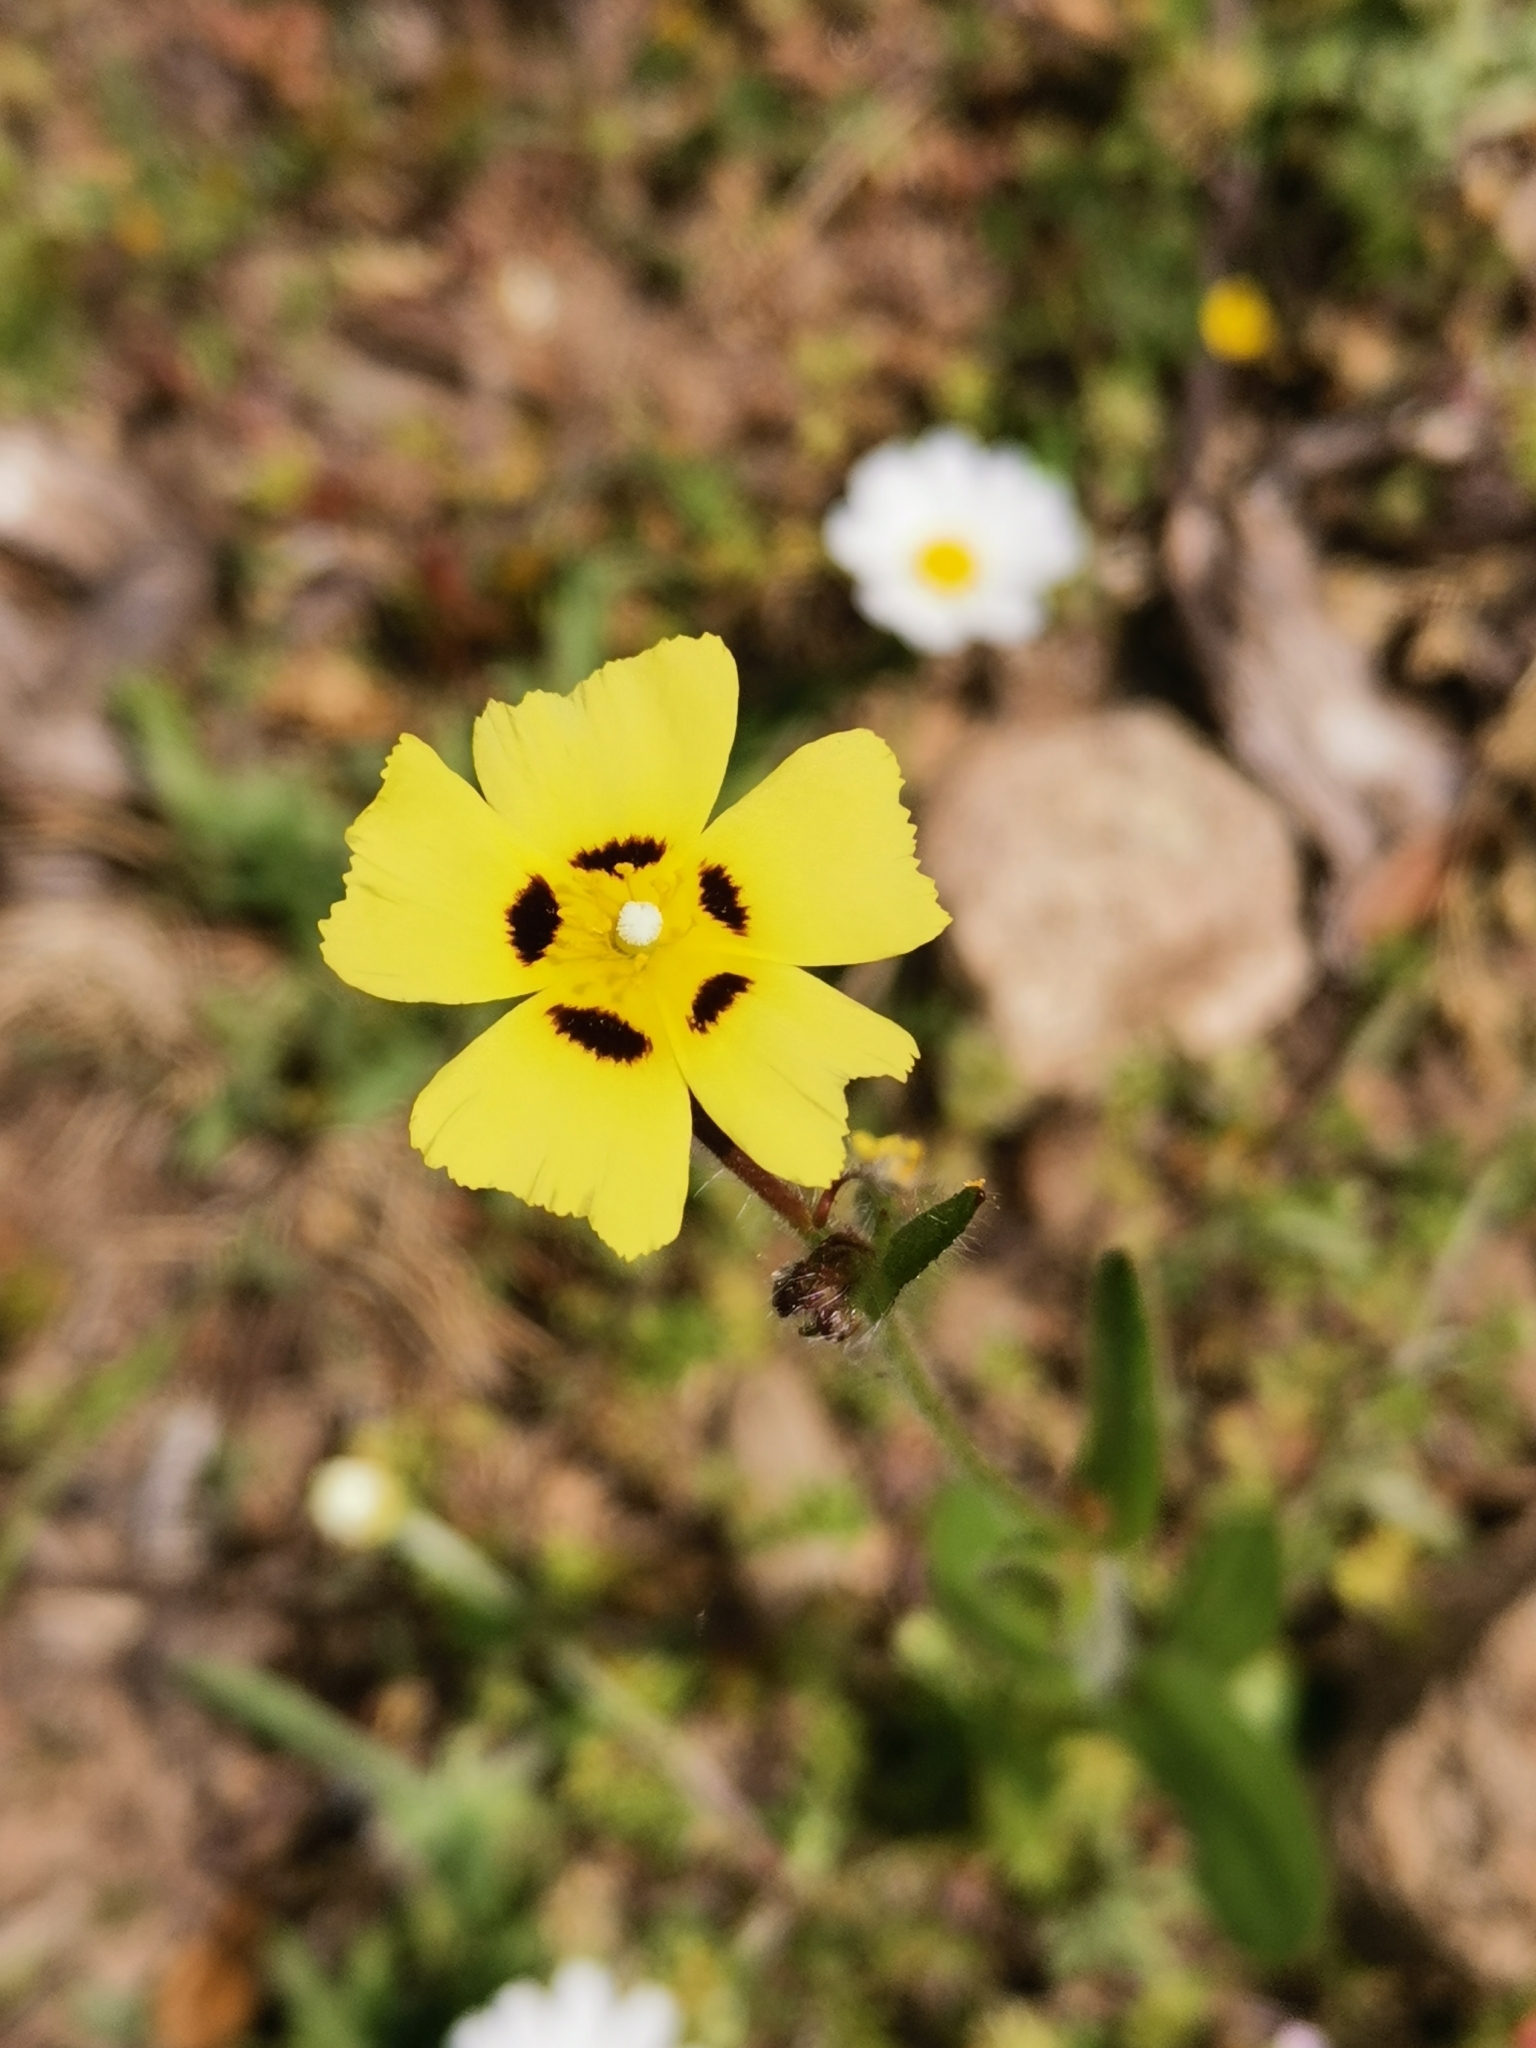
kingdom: Plantae
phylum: Tracheophyta
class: Magnoliopsida
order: Malvales
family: Cistaceae
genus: Tuberaria
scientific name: Tuberaria guttata
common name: Spotted rock-rose
